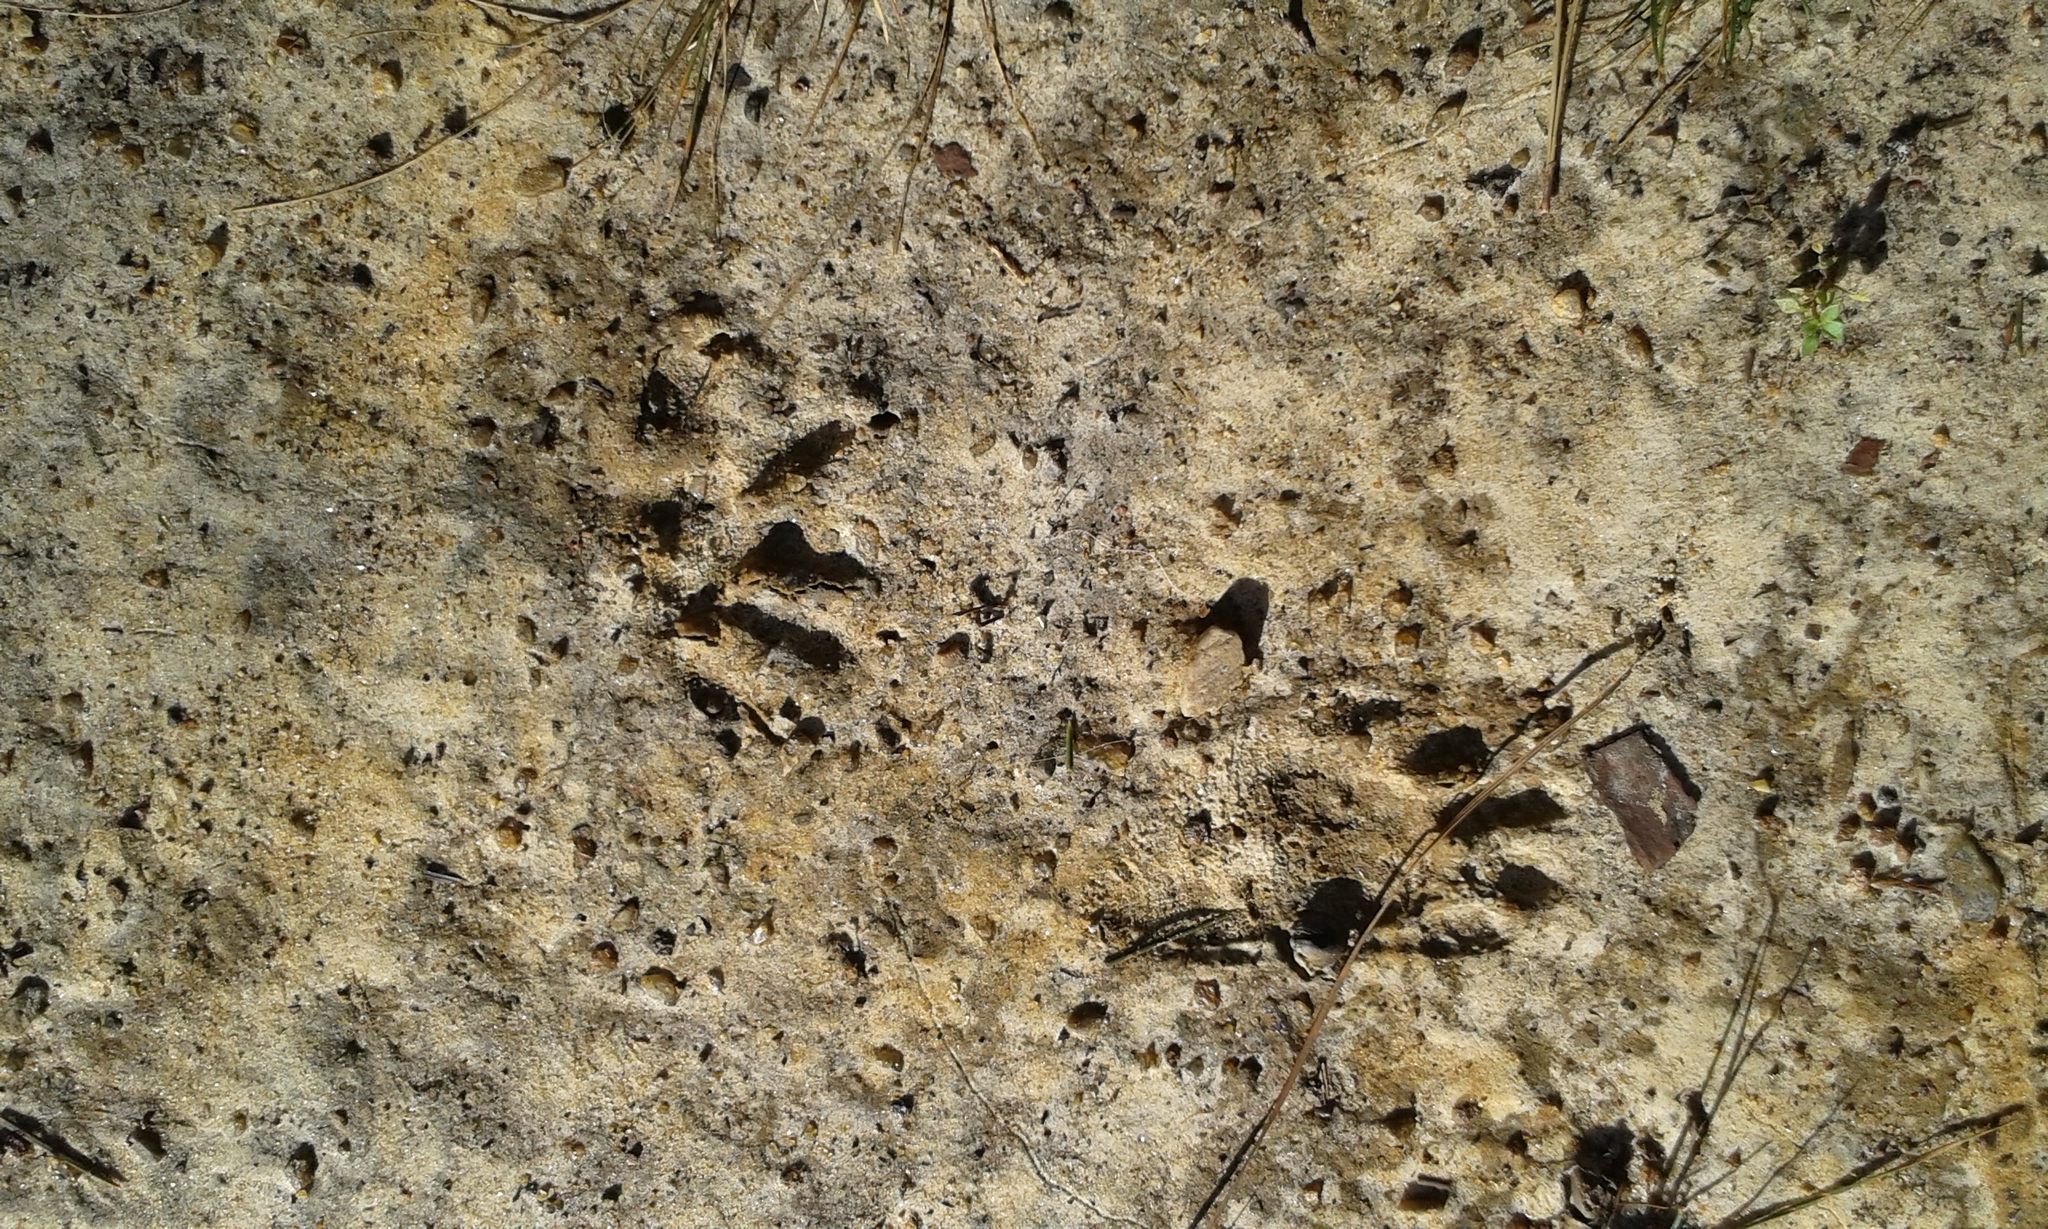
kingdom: Animalia
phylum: Chordata
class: Mammalia
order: Carnivora
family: Procyonidae
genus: Procyon
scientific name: Procyon lotor
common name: Raccoon
